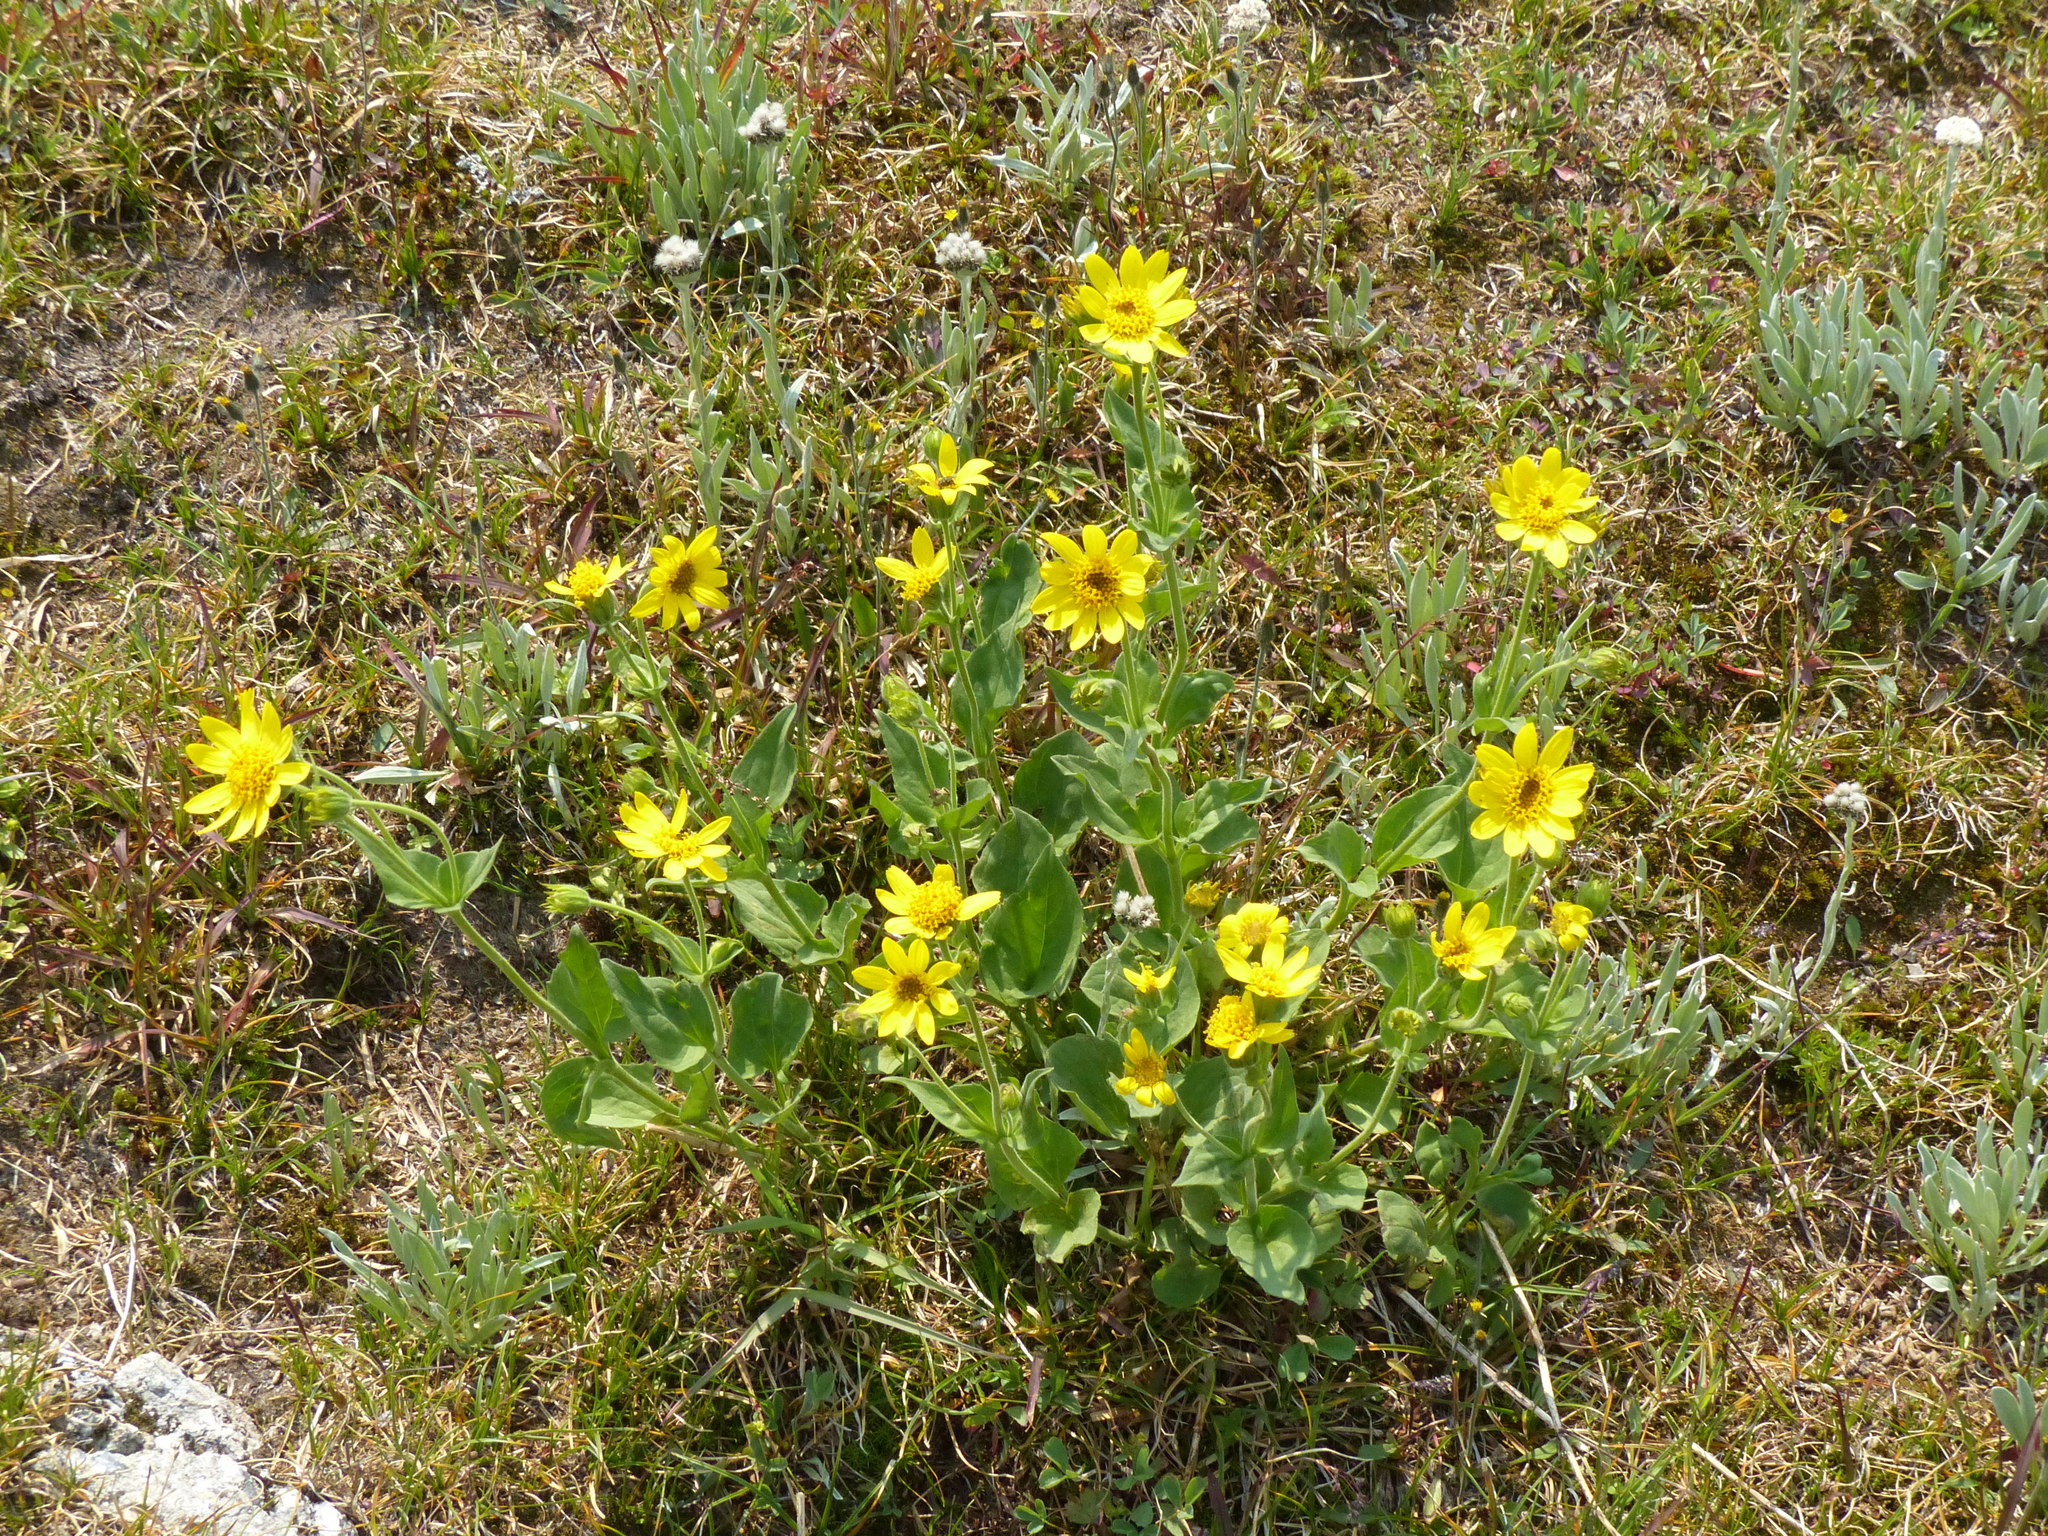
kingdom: Plantae
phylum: Tracheophyta
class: Magnoliopsida
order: Asterales
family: Asteraceae
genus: Arnica
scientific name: Arnica mollis
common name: Hairy arnica
